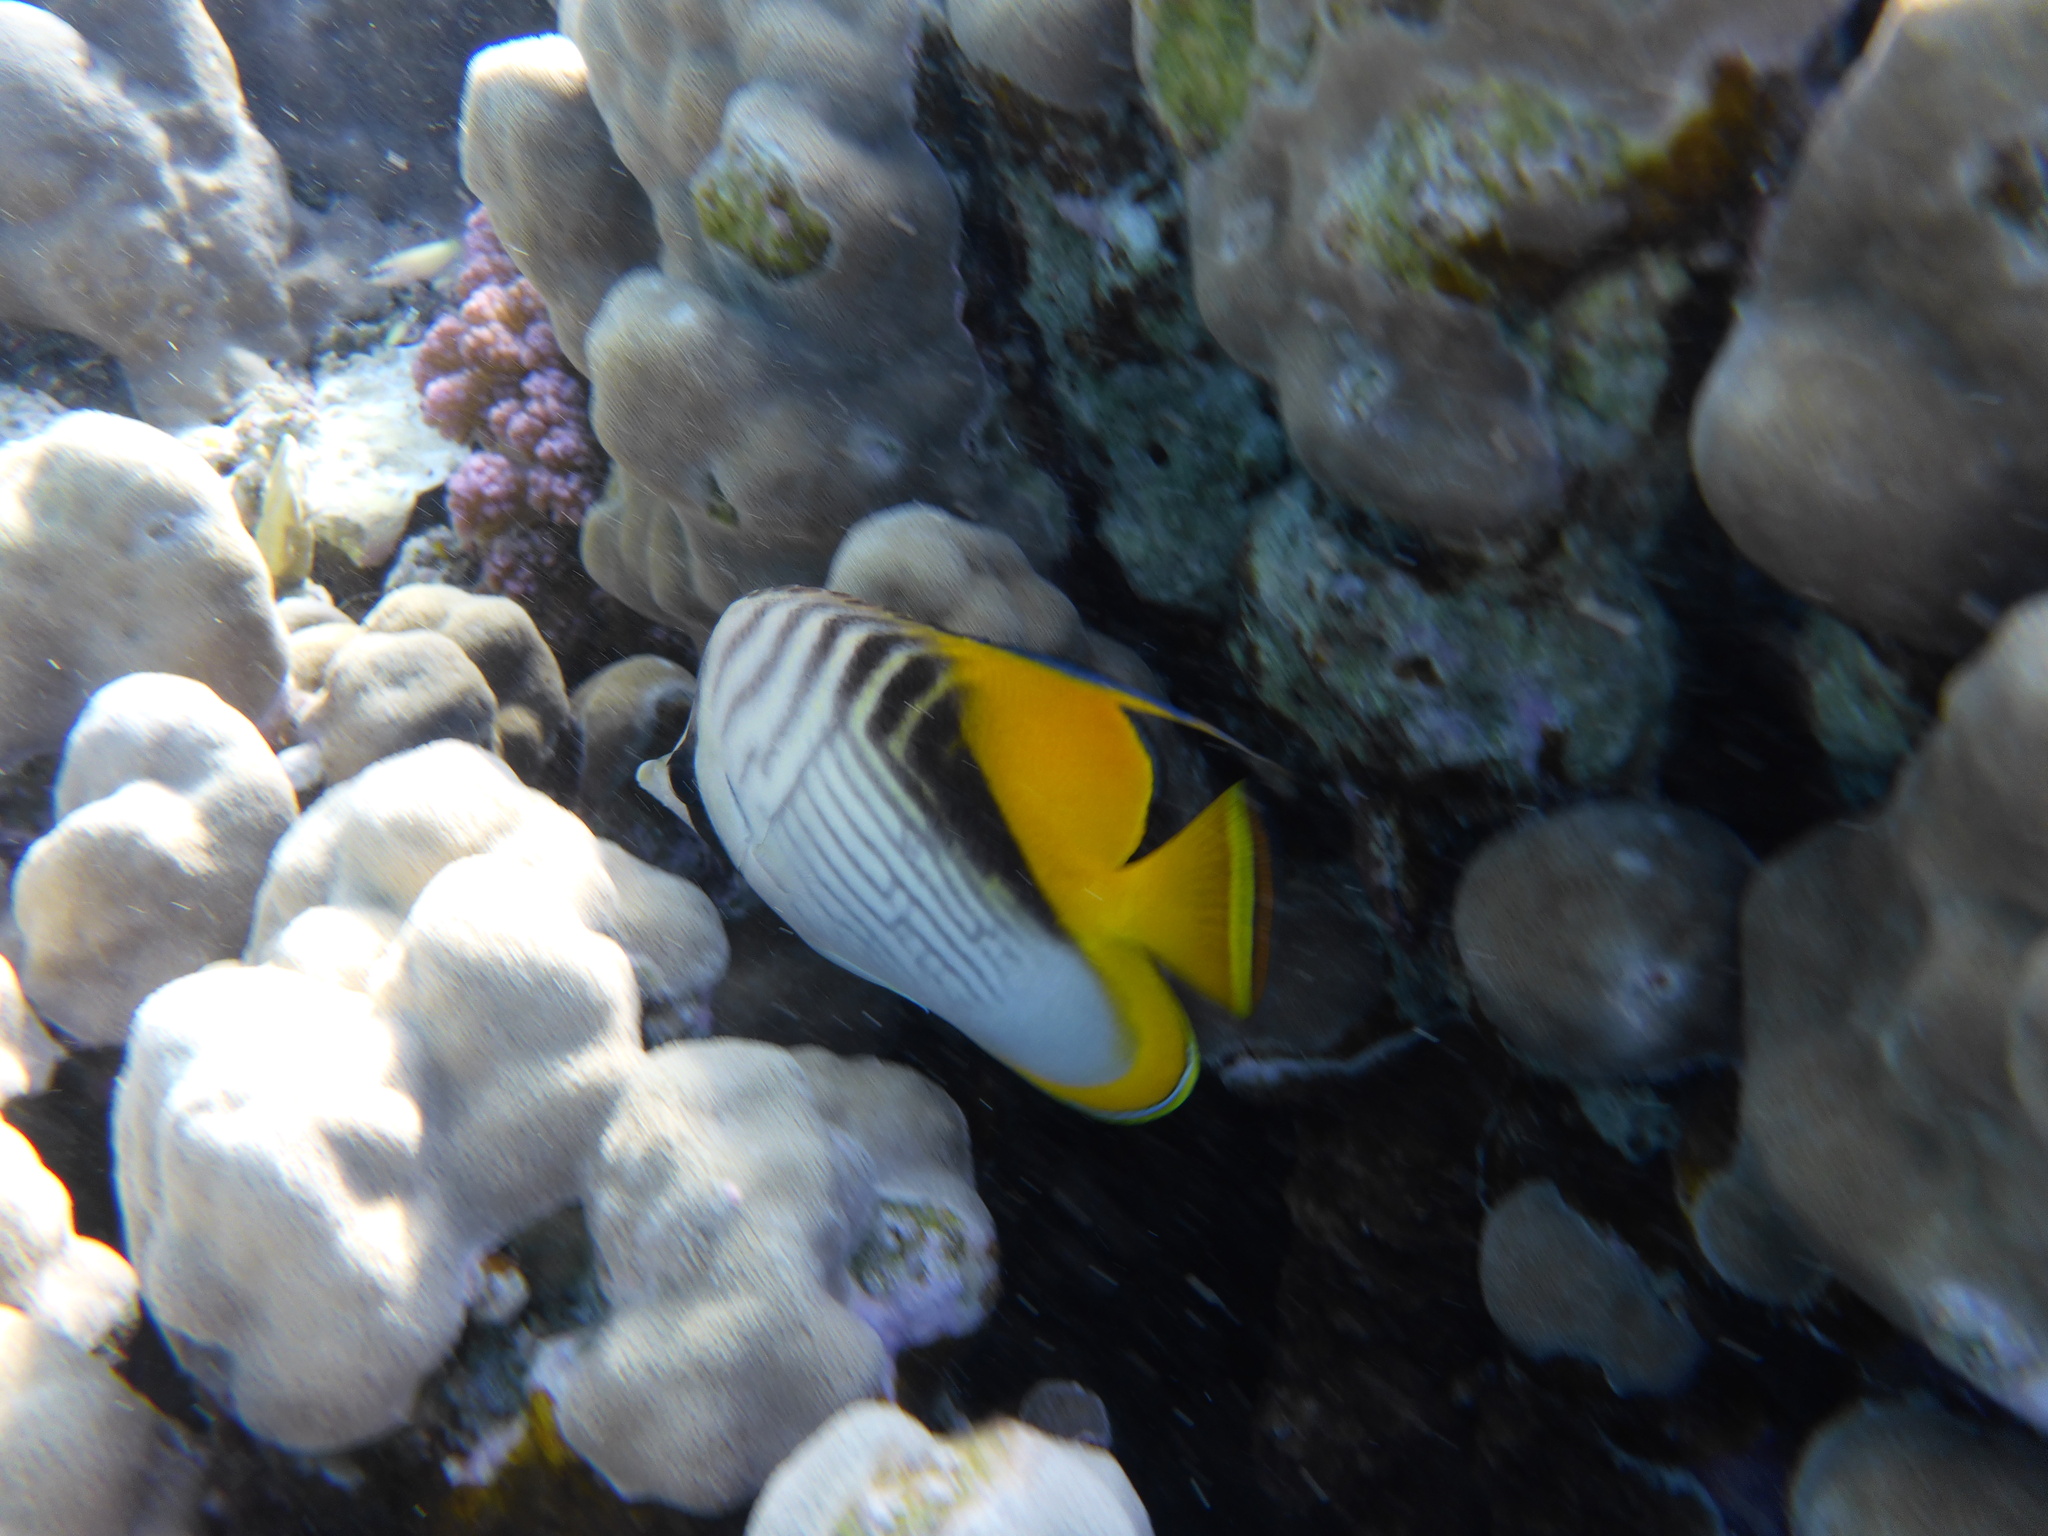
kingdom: Animalia
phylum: Chordata
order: Perciformes
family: Chaetodontidae
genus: Chaetodon
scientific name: Chaetodon auriga
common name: Threadfin butterflyfish
